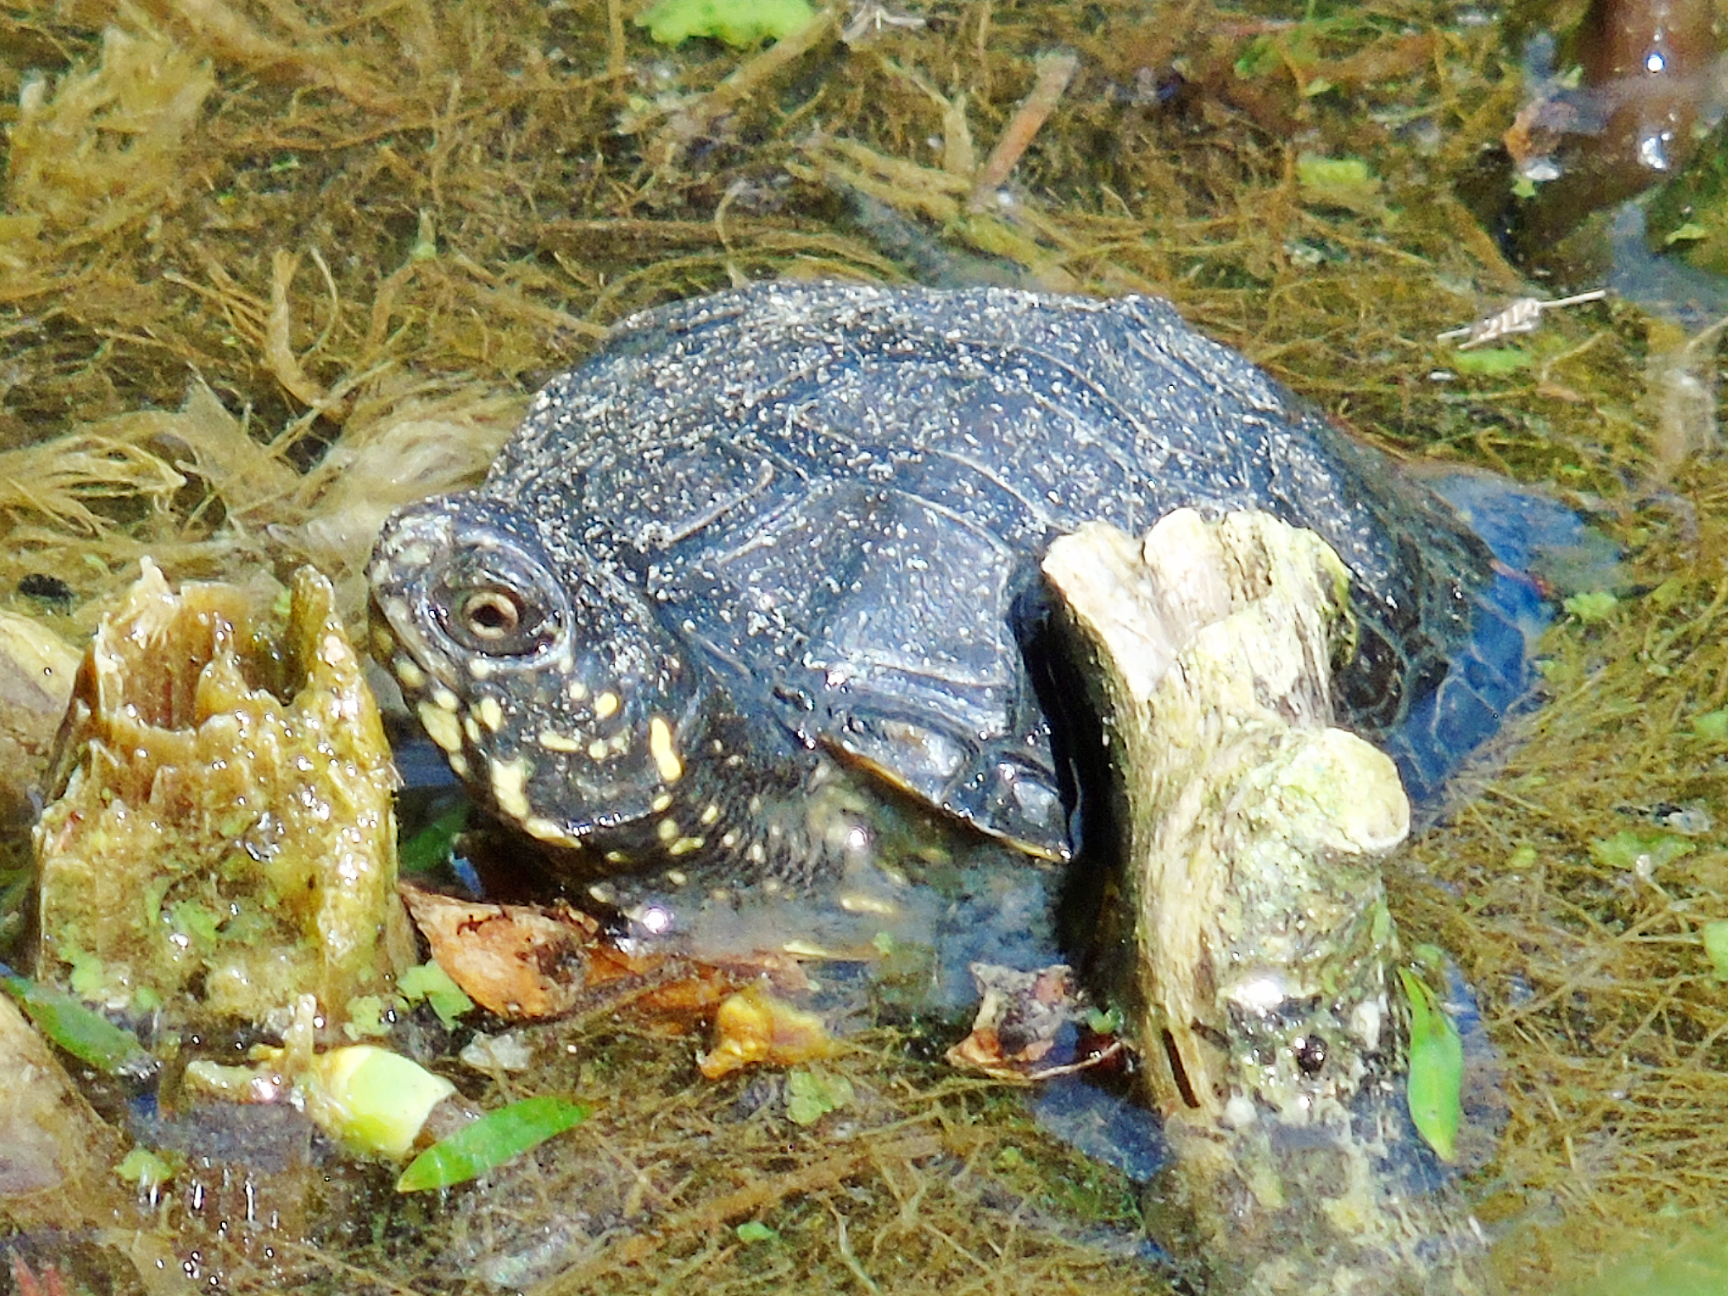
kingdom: Animalia
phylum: Chordata
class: Testudines
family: Emydidae
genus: Emys
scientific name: Emys orbicularis
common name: European pond turtle
